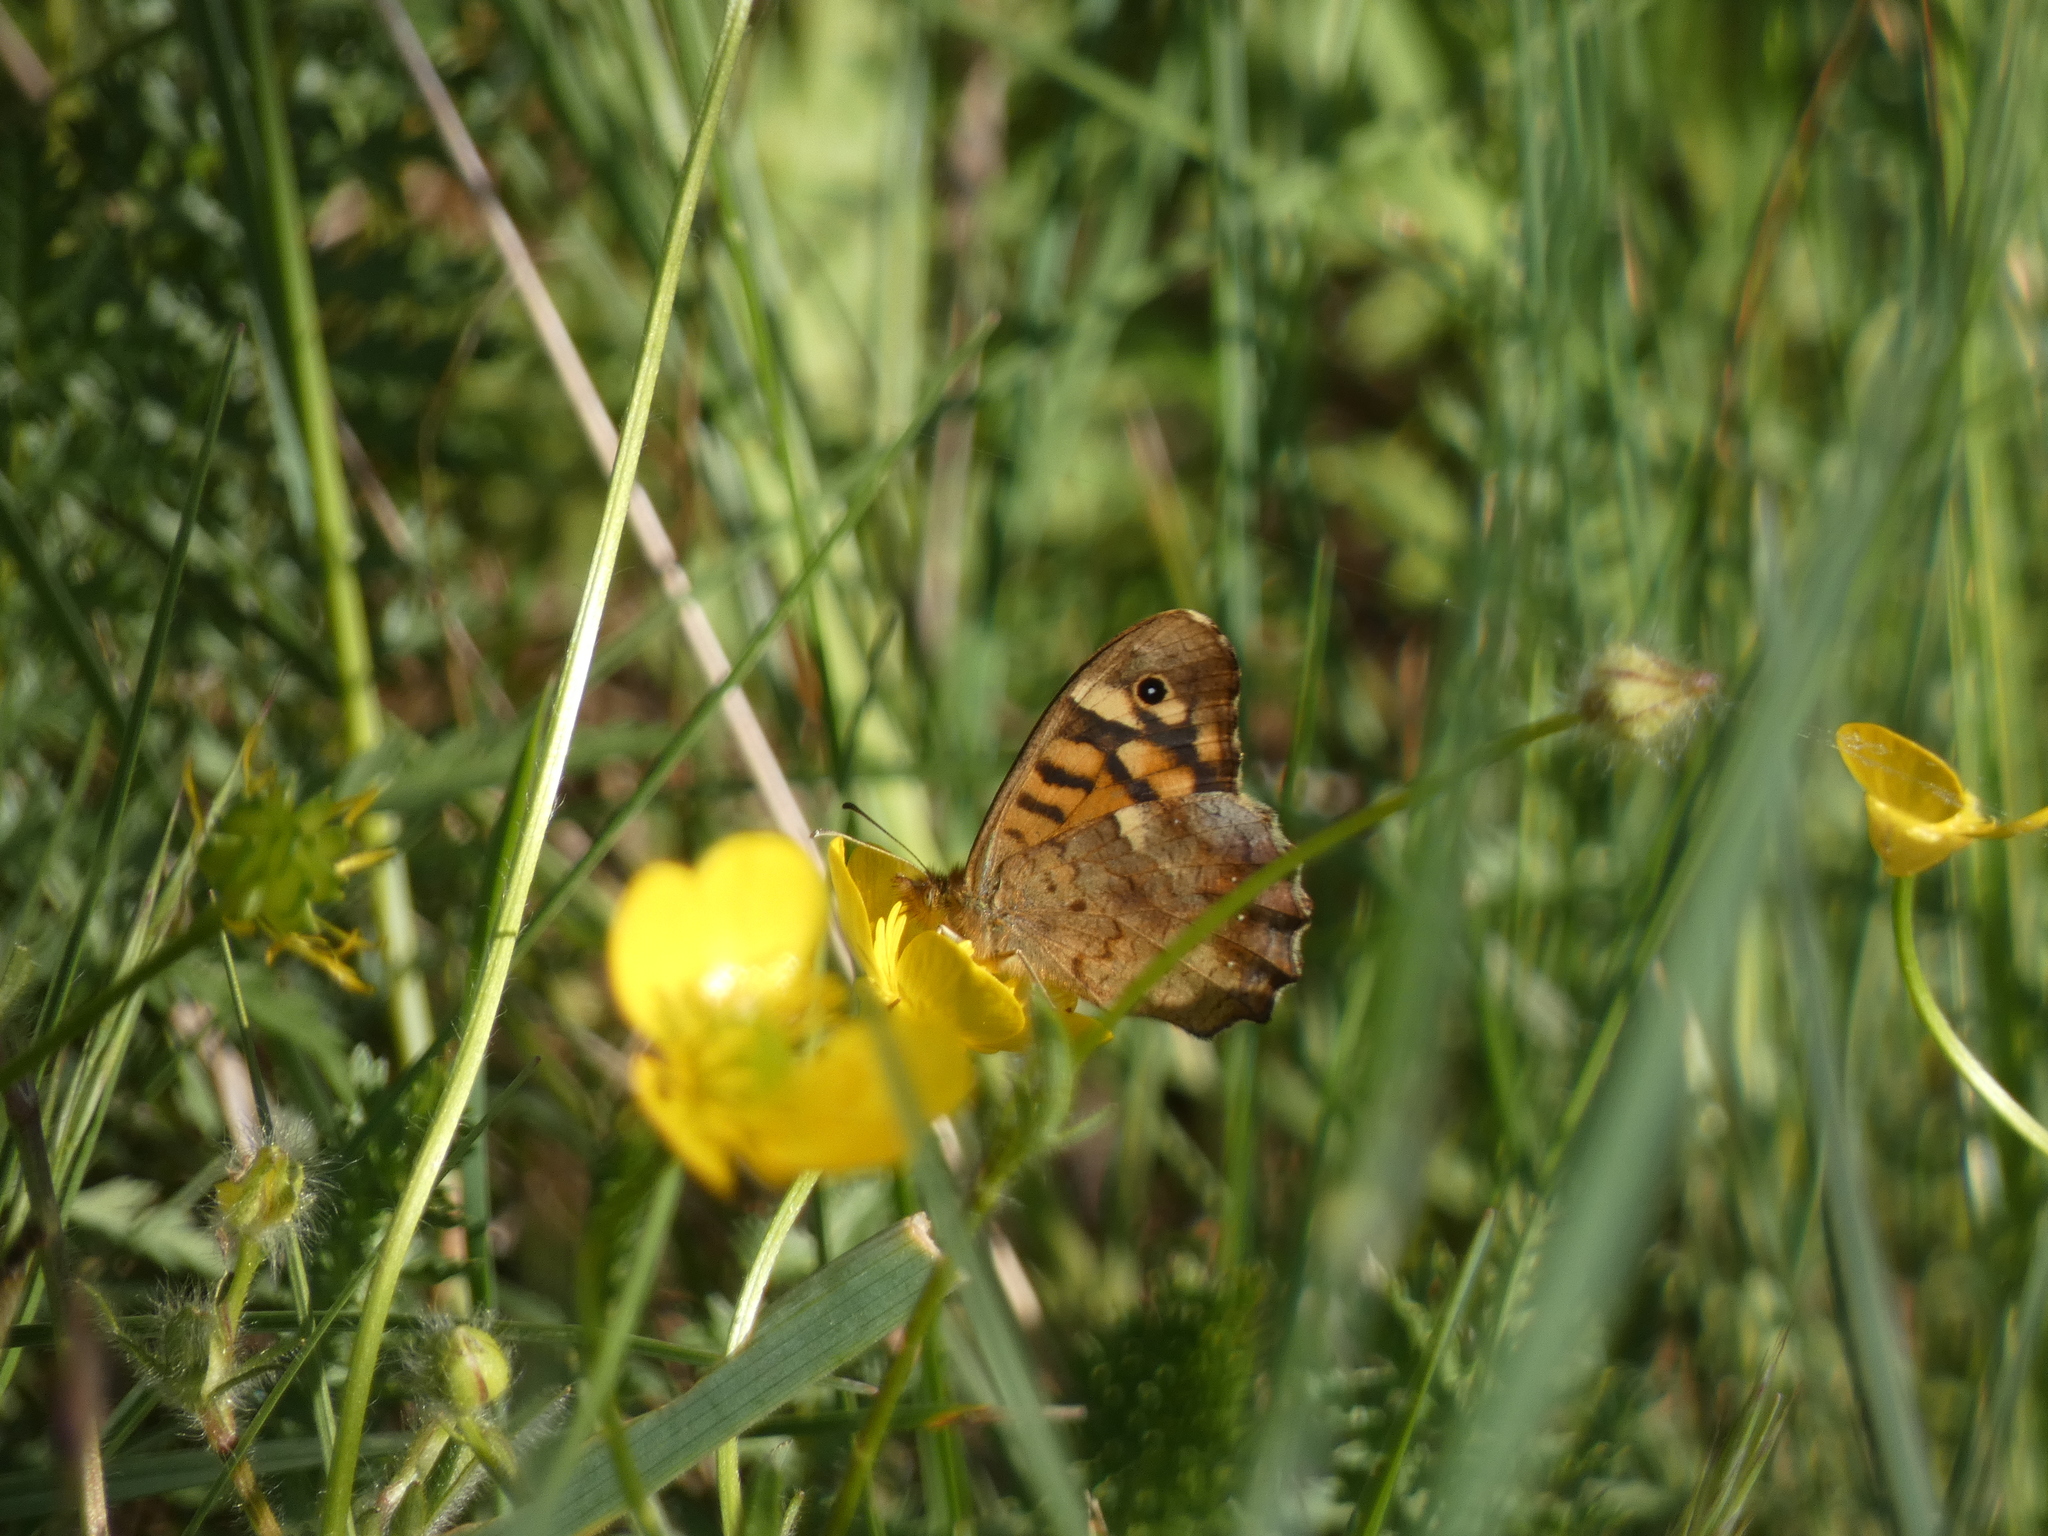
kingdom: Animalia
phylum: Arthropoda
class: Insecta
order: Lepidoptera
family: Nymphalidae
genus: Pararge
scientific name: Pararge aegeria
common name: Speckled wood
